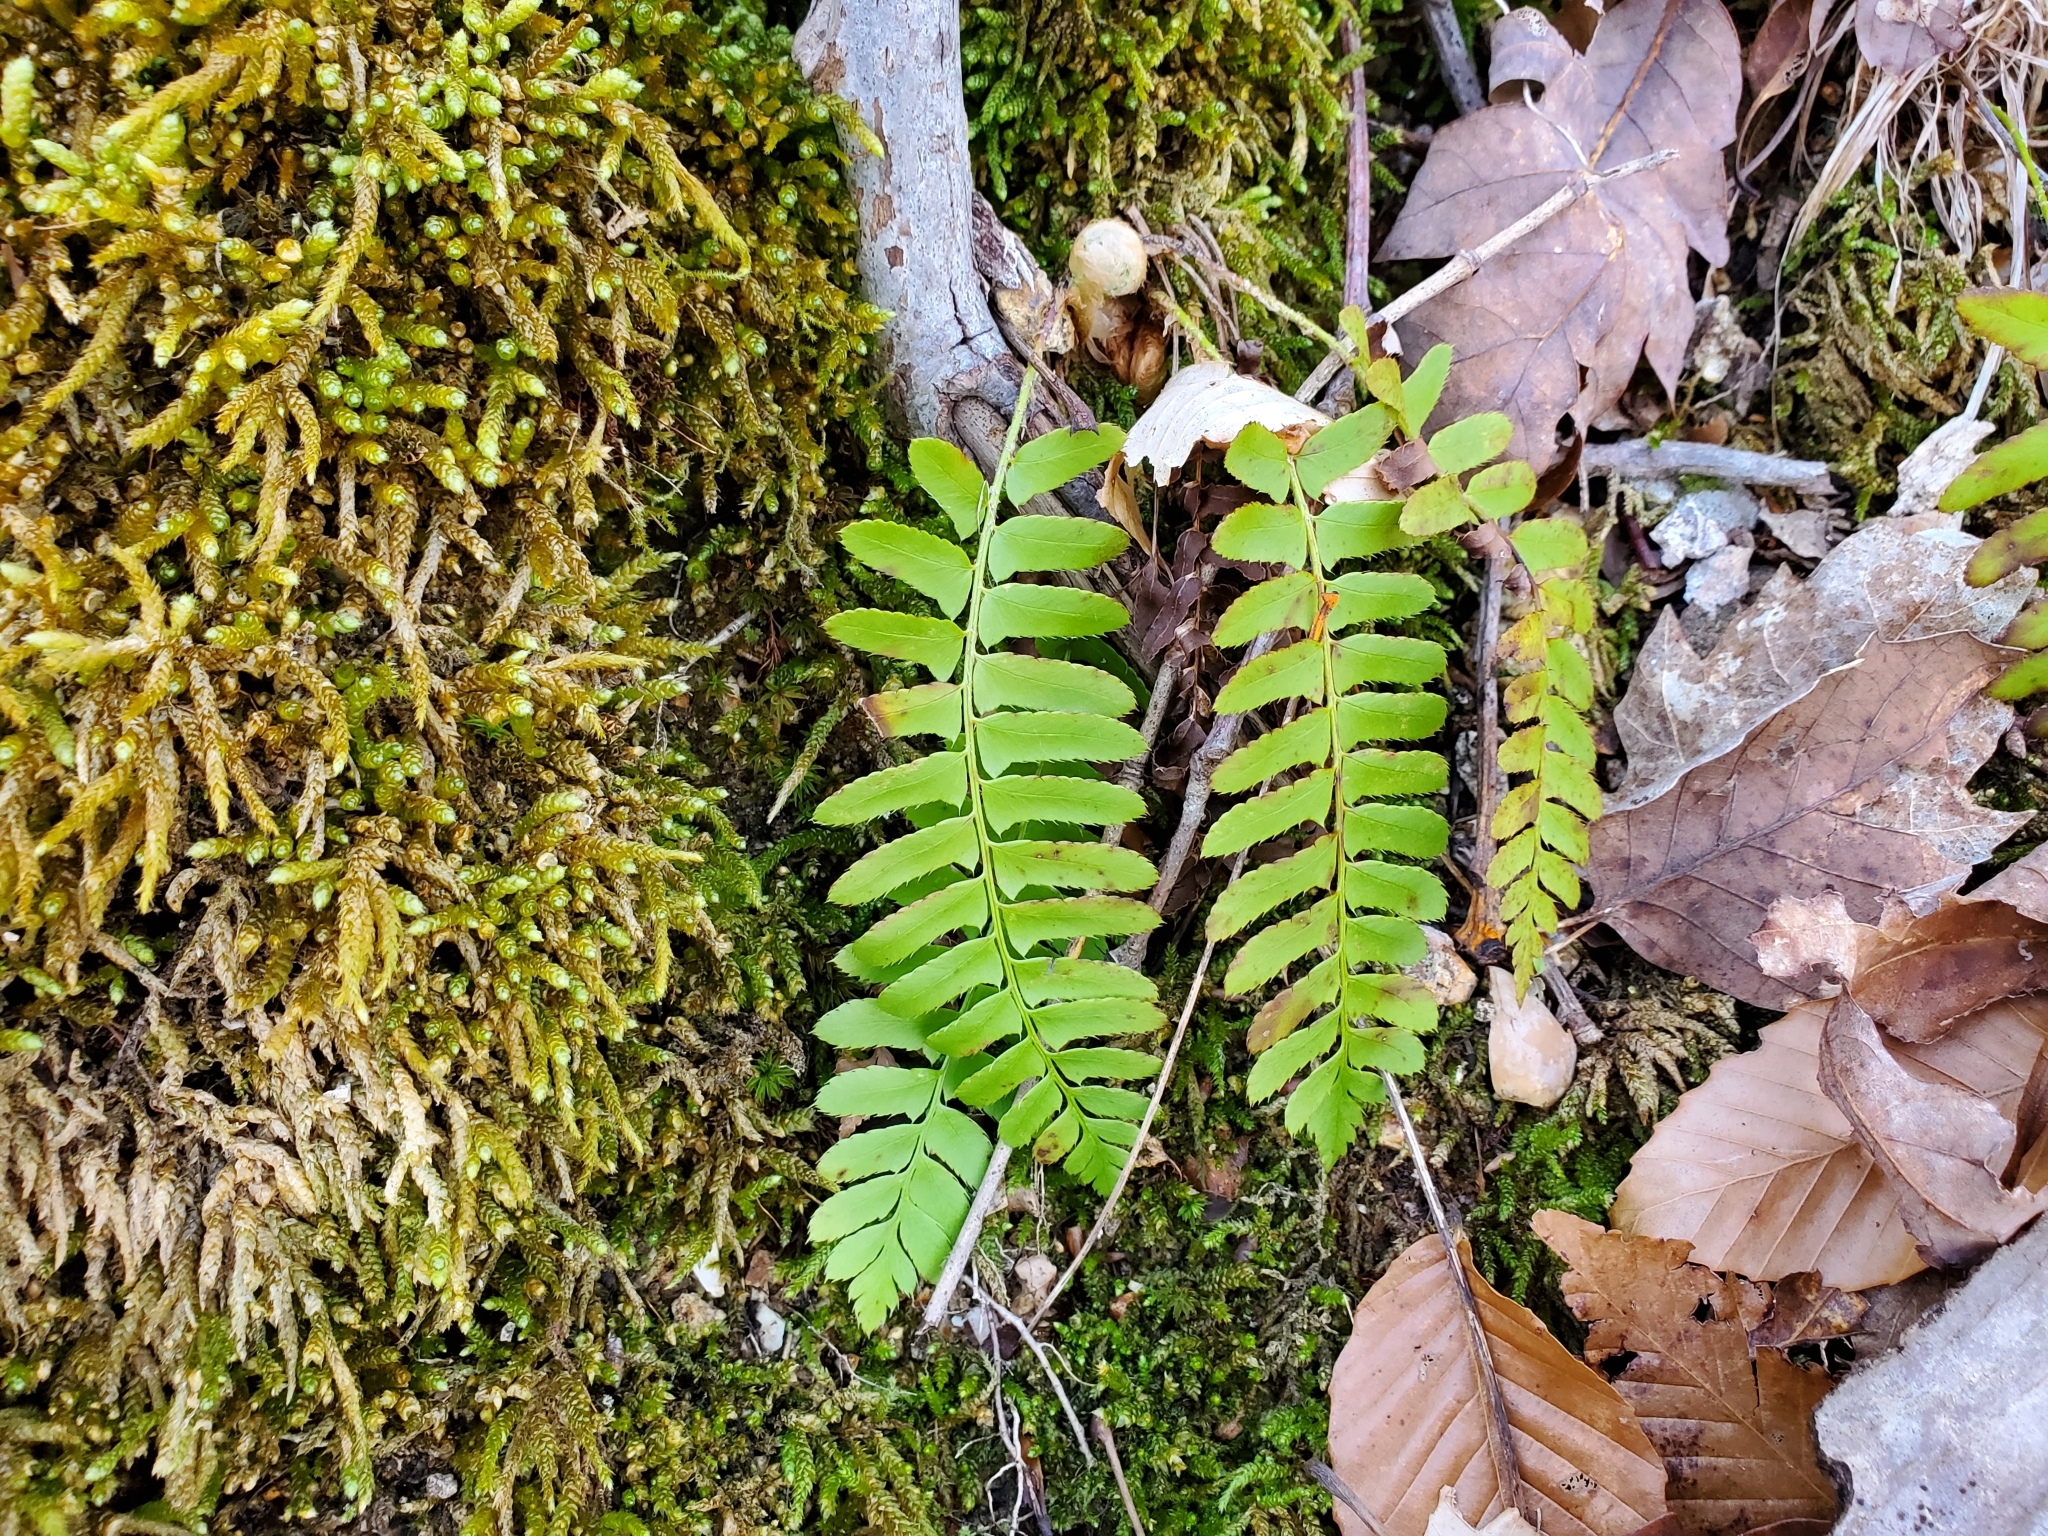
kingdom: Plantae
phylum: Tracheophyta
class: Polypodiopsida
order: Polypodiales
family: Dryopteridaceae
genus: Polystichum
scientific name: Polystichum acrostichoides
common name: Christmas fern
